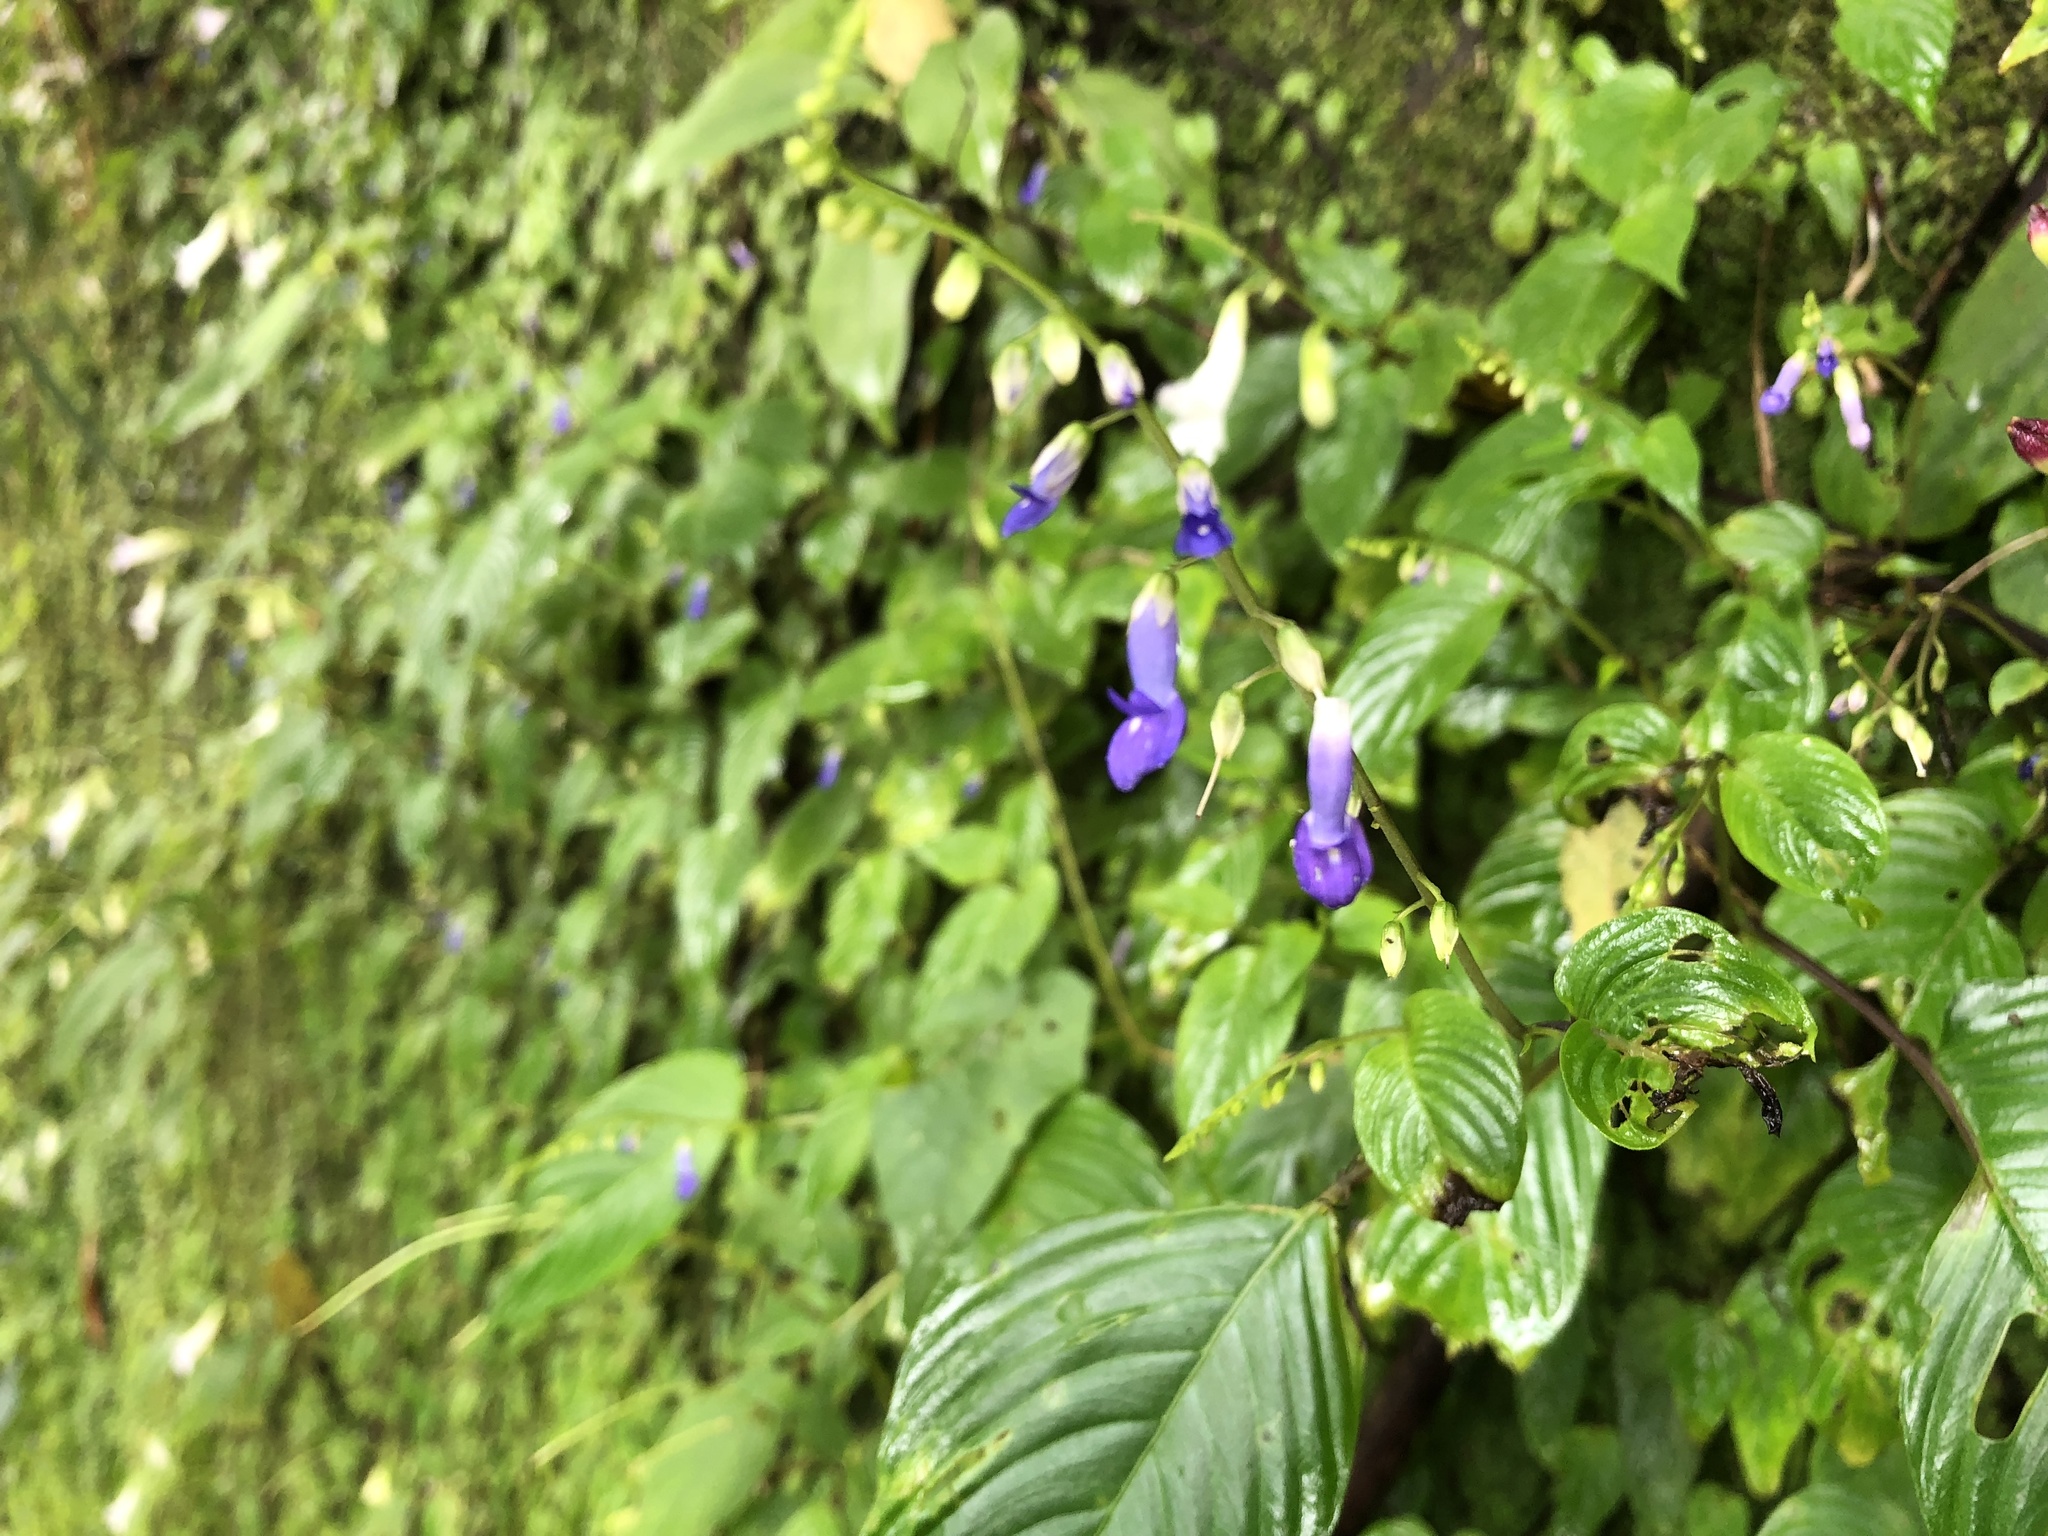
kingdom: Plantae
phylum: Tracheophyta
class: Magnoliopsida
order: Lamiales
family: Gesneriaceae
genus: Rhynchoglossum
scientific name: Rhynchoglossum obliquum
